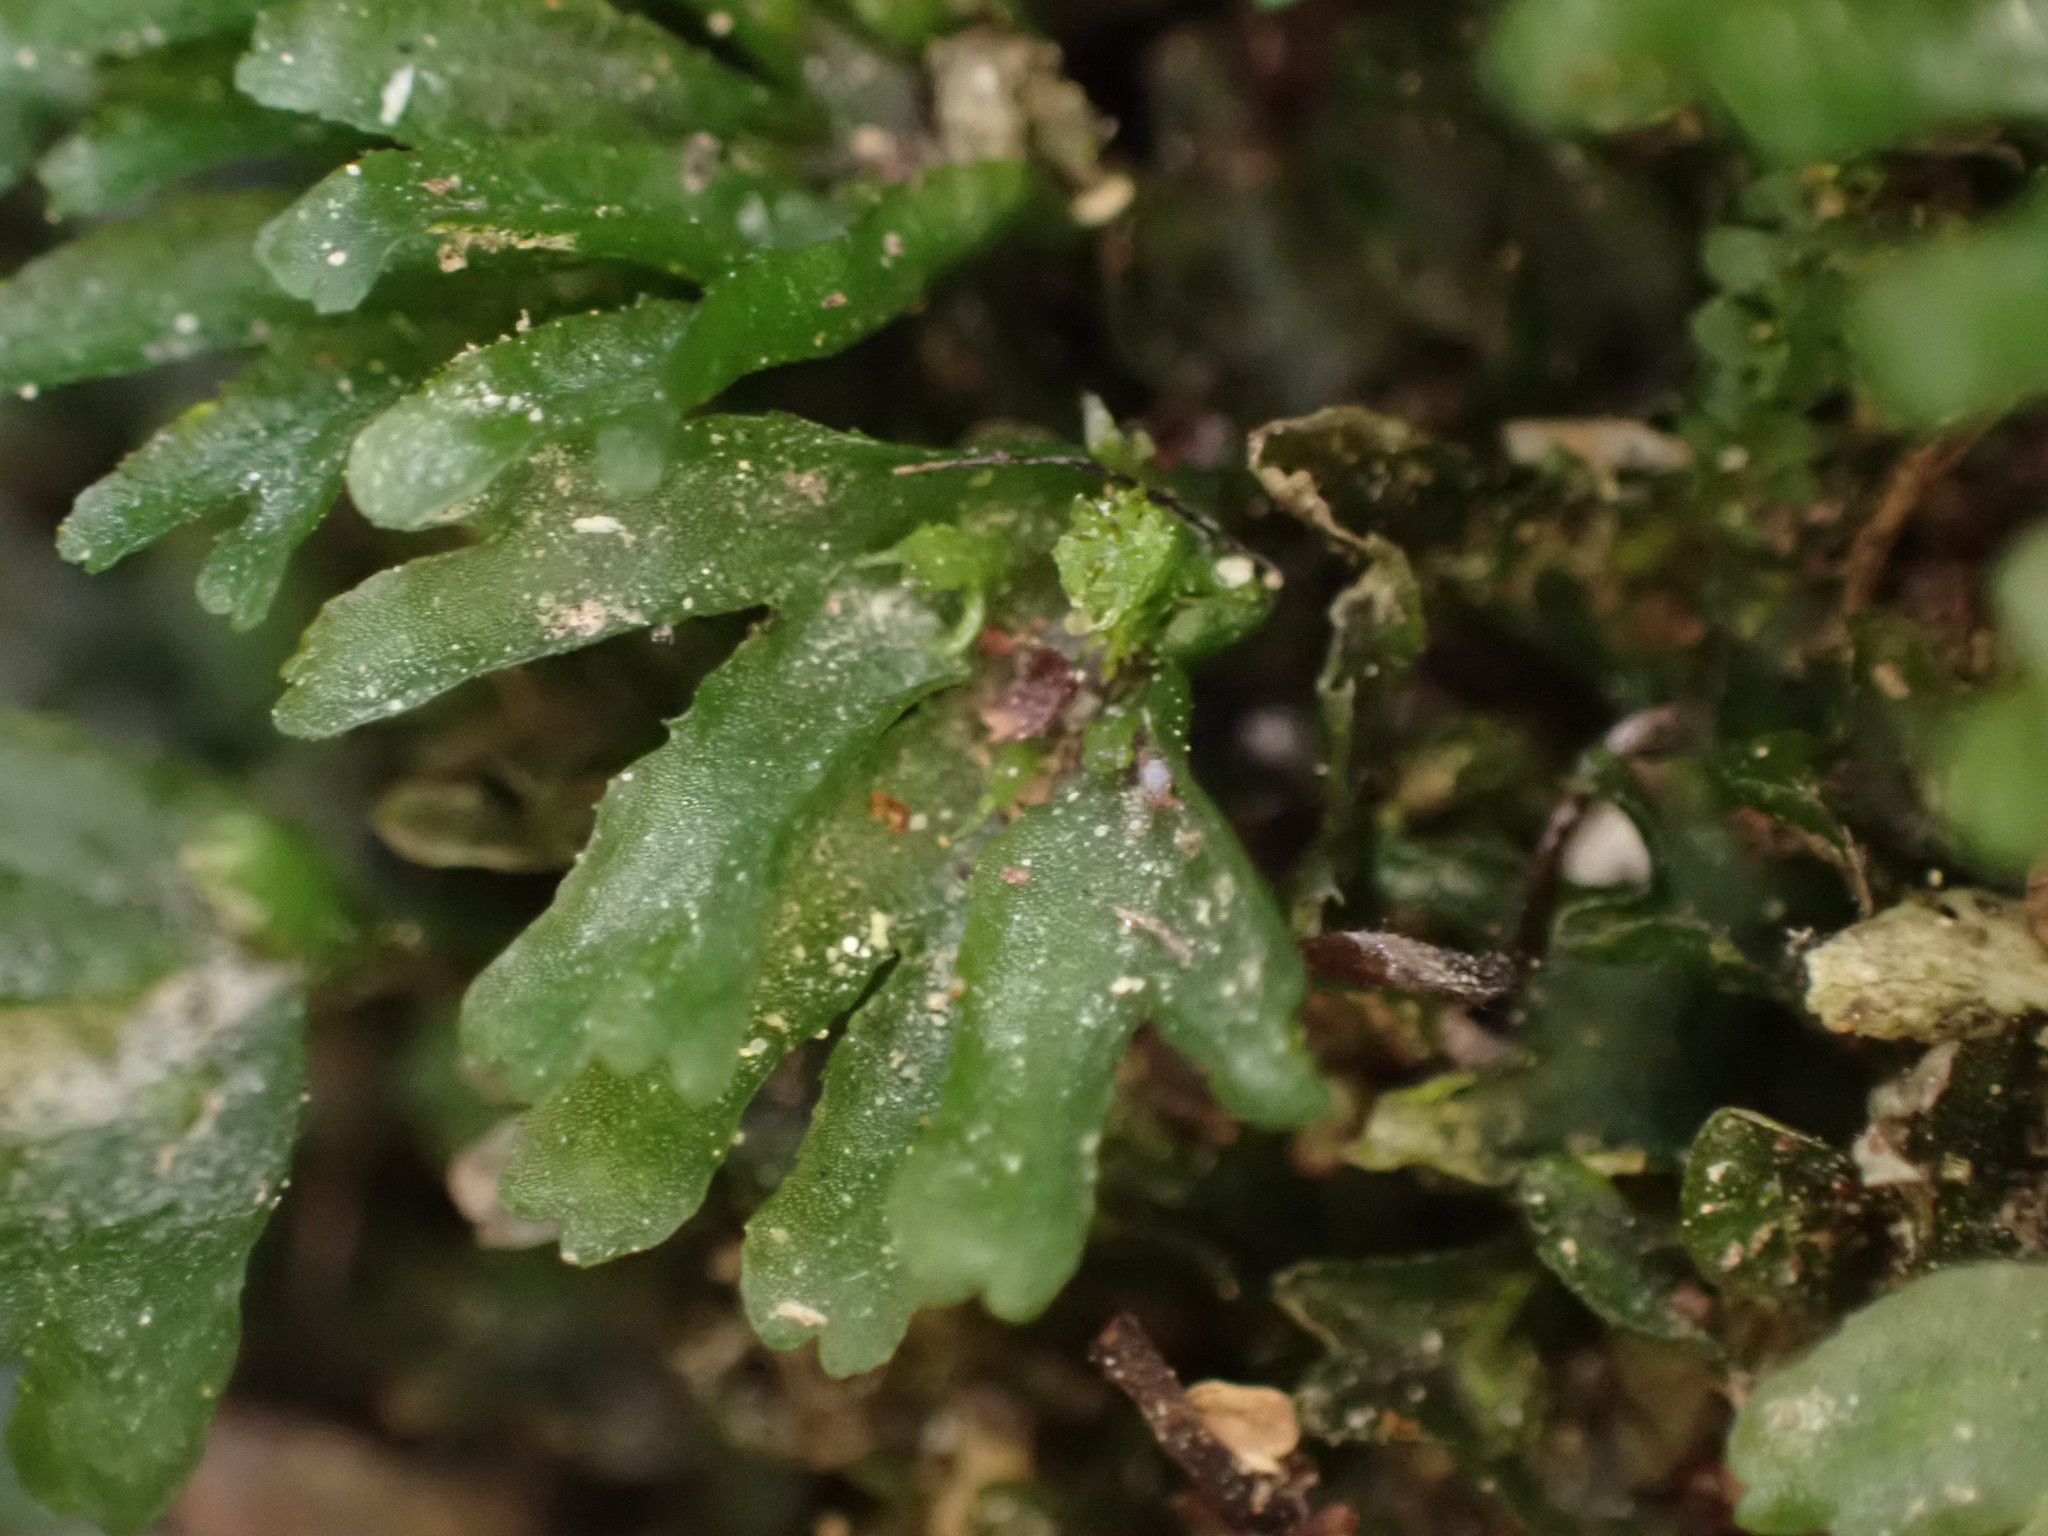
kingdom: Plantae
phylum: Marchantiophyta
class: Jungermanniopsida
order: Pallaviciniales
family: Pallaviciniaceae
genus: Symphyogyna
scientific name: Symphyogyna hymenophyllum
